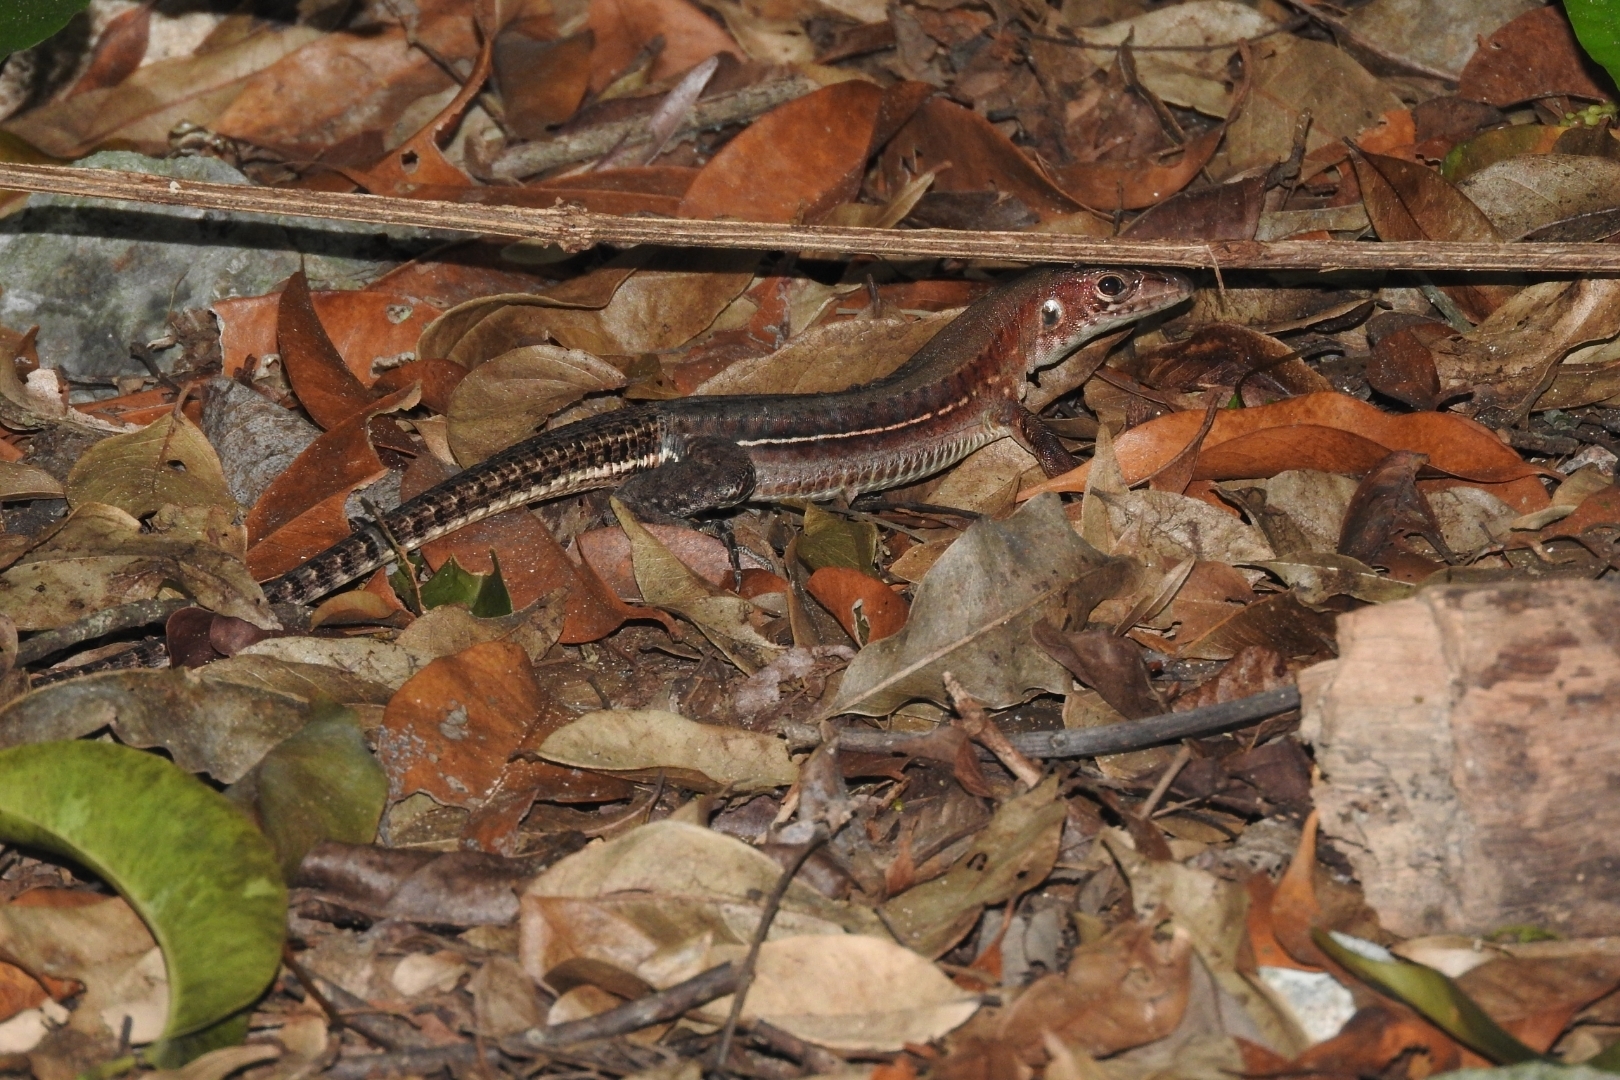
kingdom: Animalia
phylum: Chordata
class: Squamata
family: Teiidae
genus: Holcosus
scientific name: Holcosus undulatus
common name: Rainbow ameiva
